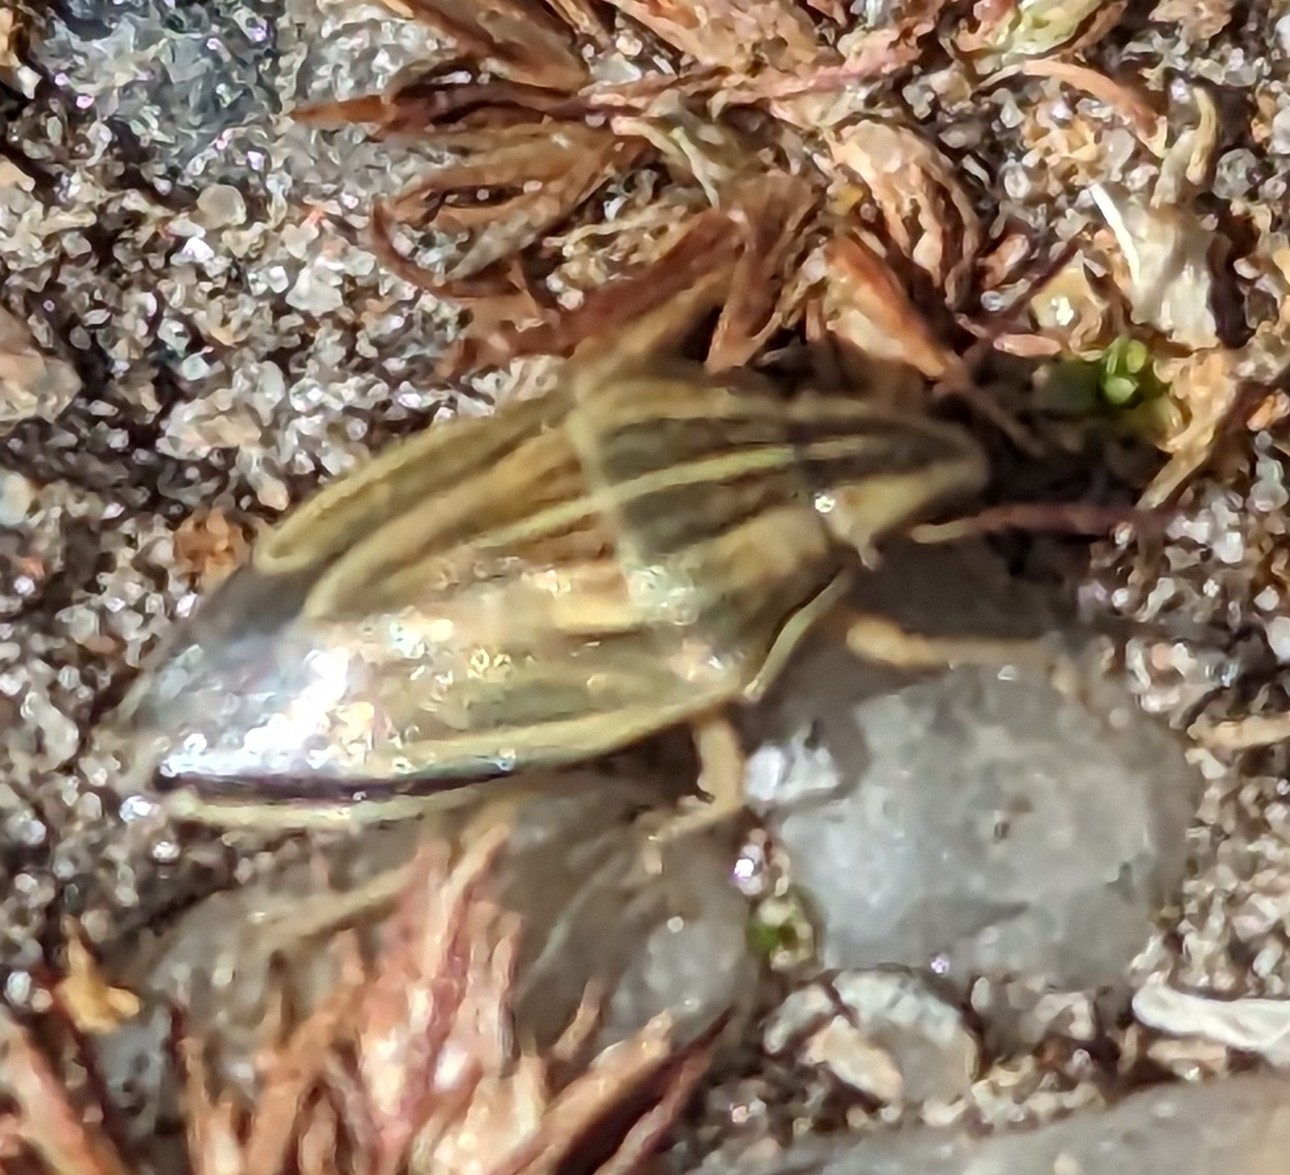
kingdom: Animalia
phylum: Arthropoda
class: Insecta
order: Hemiptera
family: Pentatomidae
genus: Aelia
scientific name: Aelia acuminata
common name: Bishop's mitre
